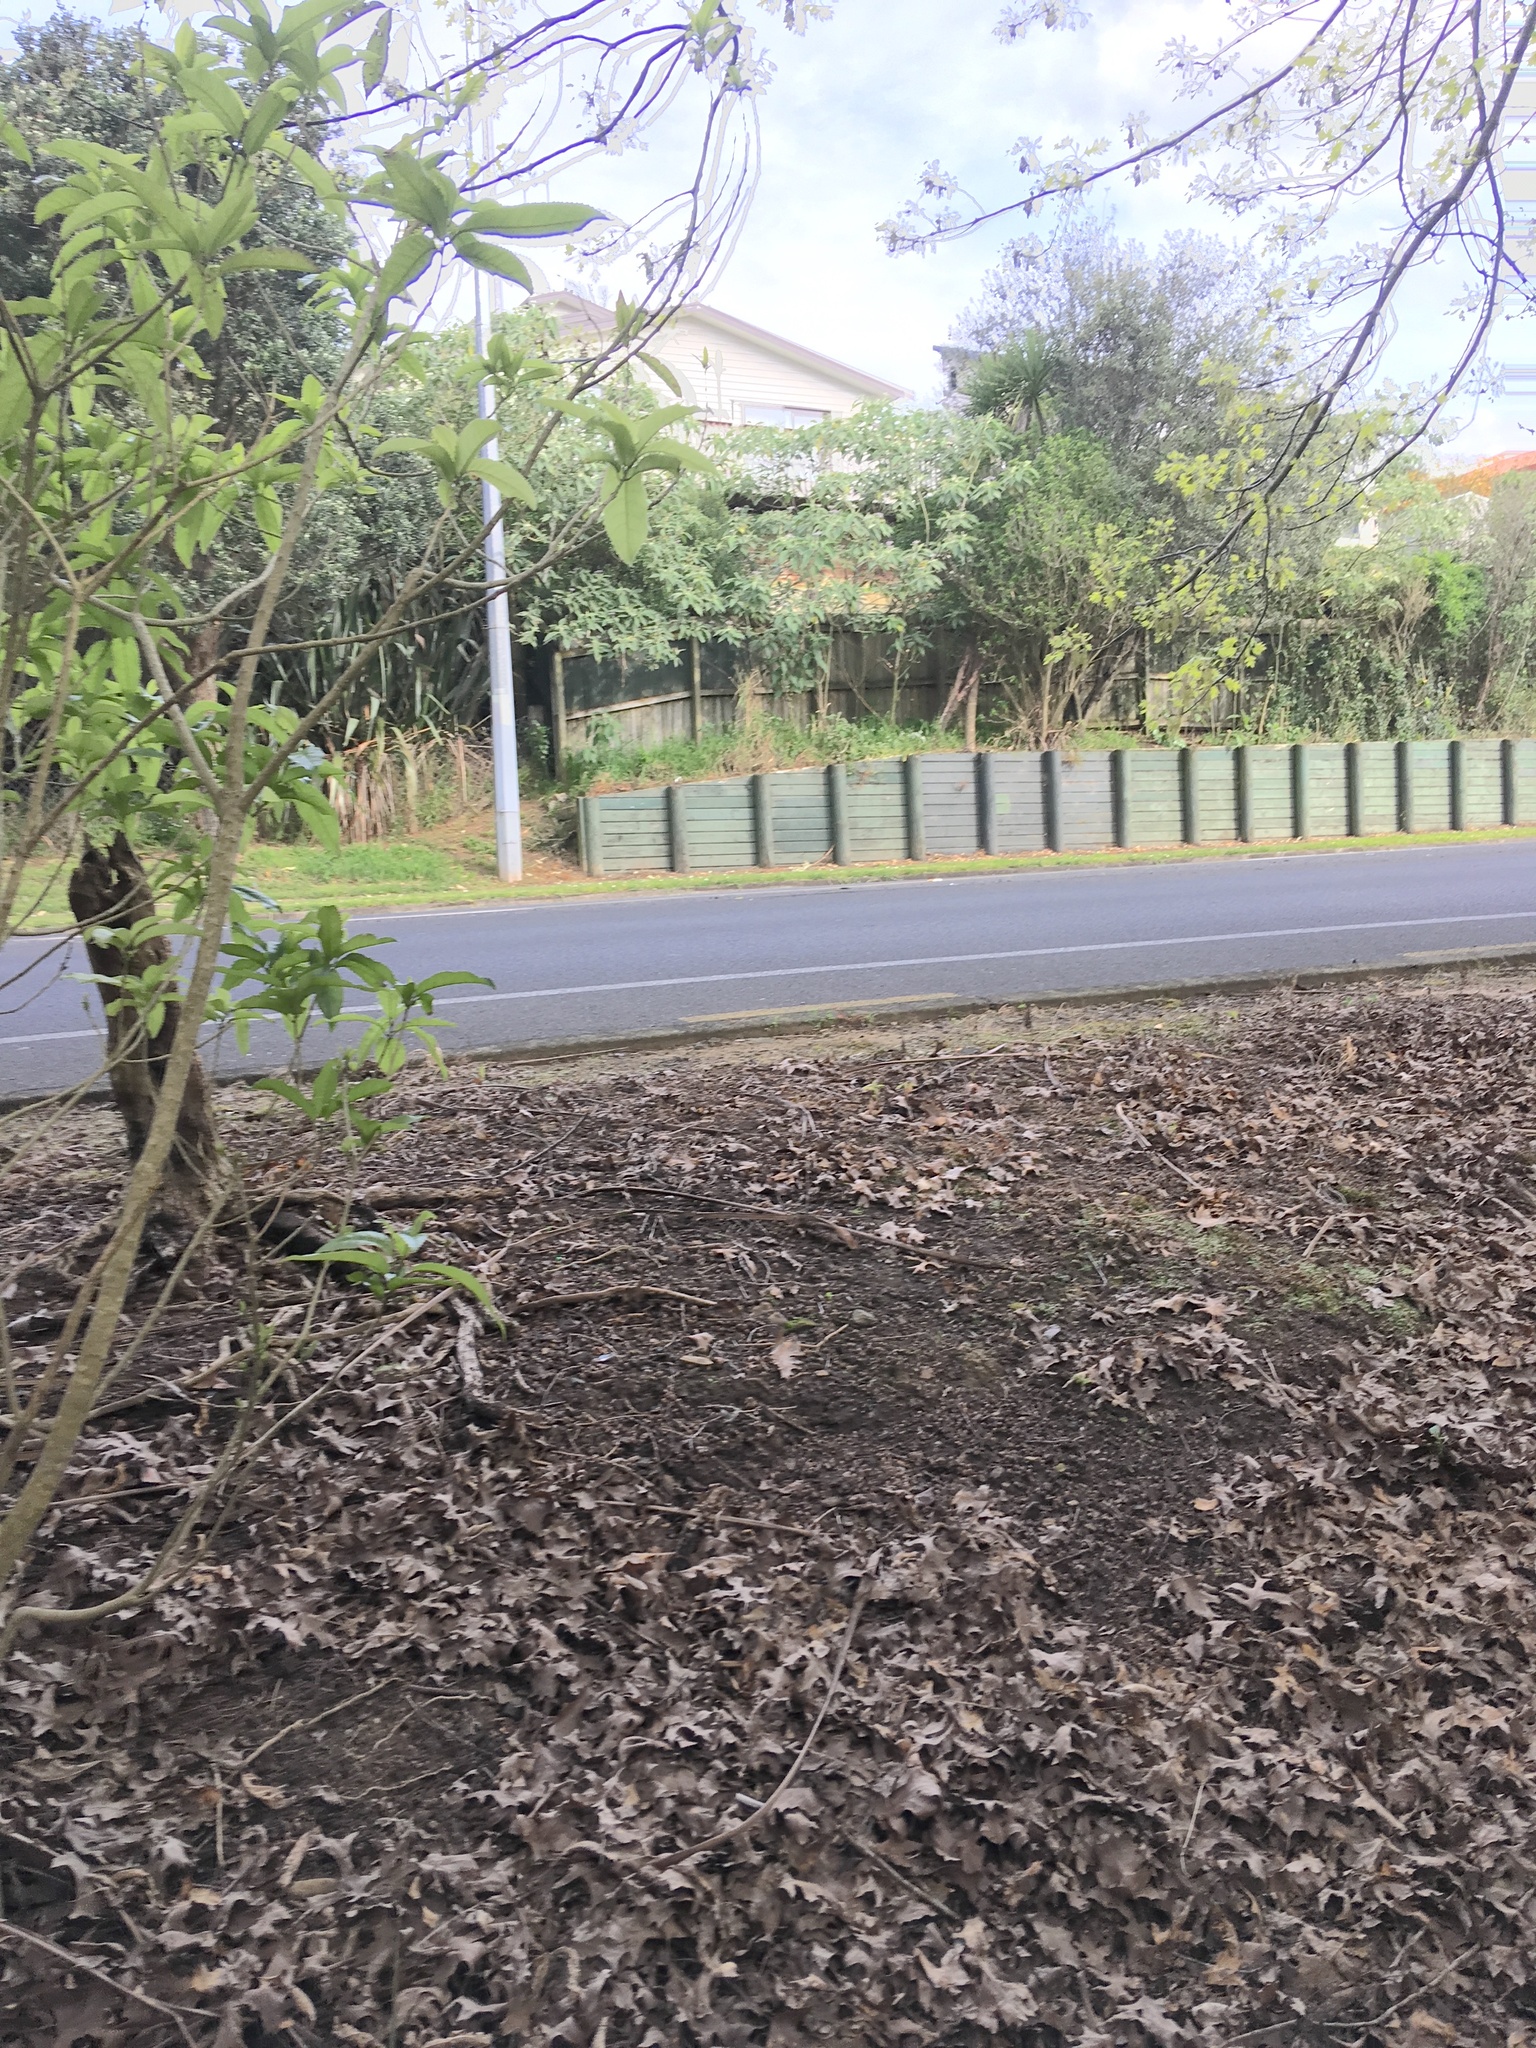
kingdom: Plantae
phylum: Tracheophyta
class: Magnoliopsida
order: Solanales
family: Solanaceae
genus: Solanum
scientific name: Solanum mauritianum
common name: Earleaf nightshade
